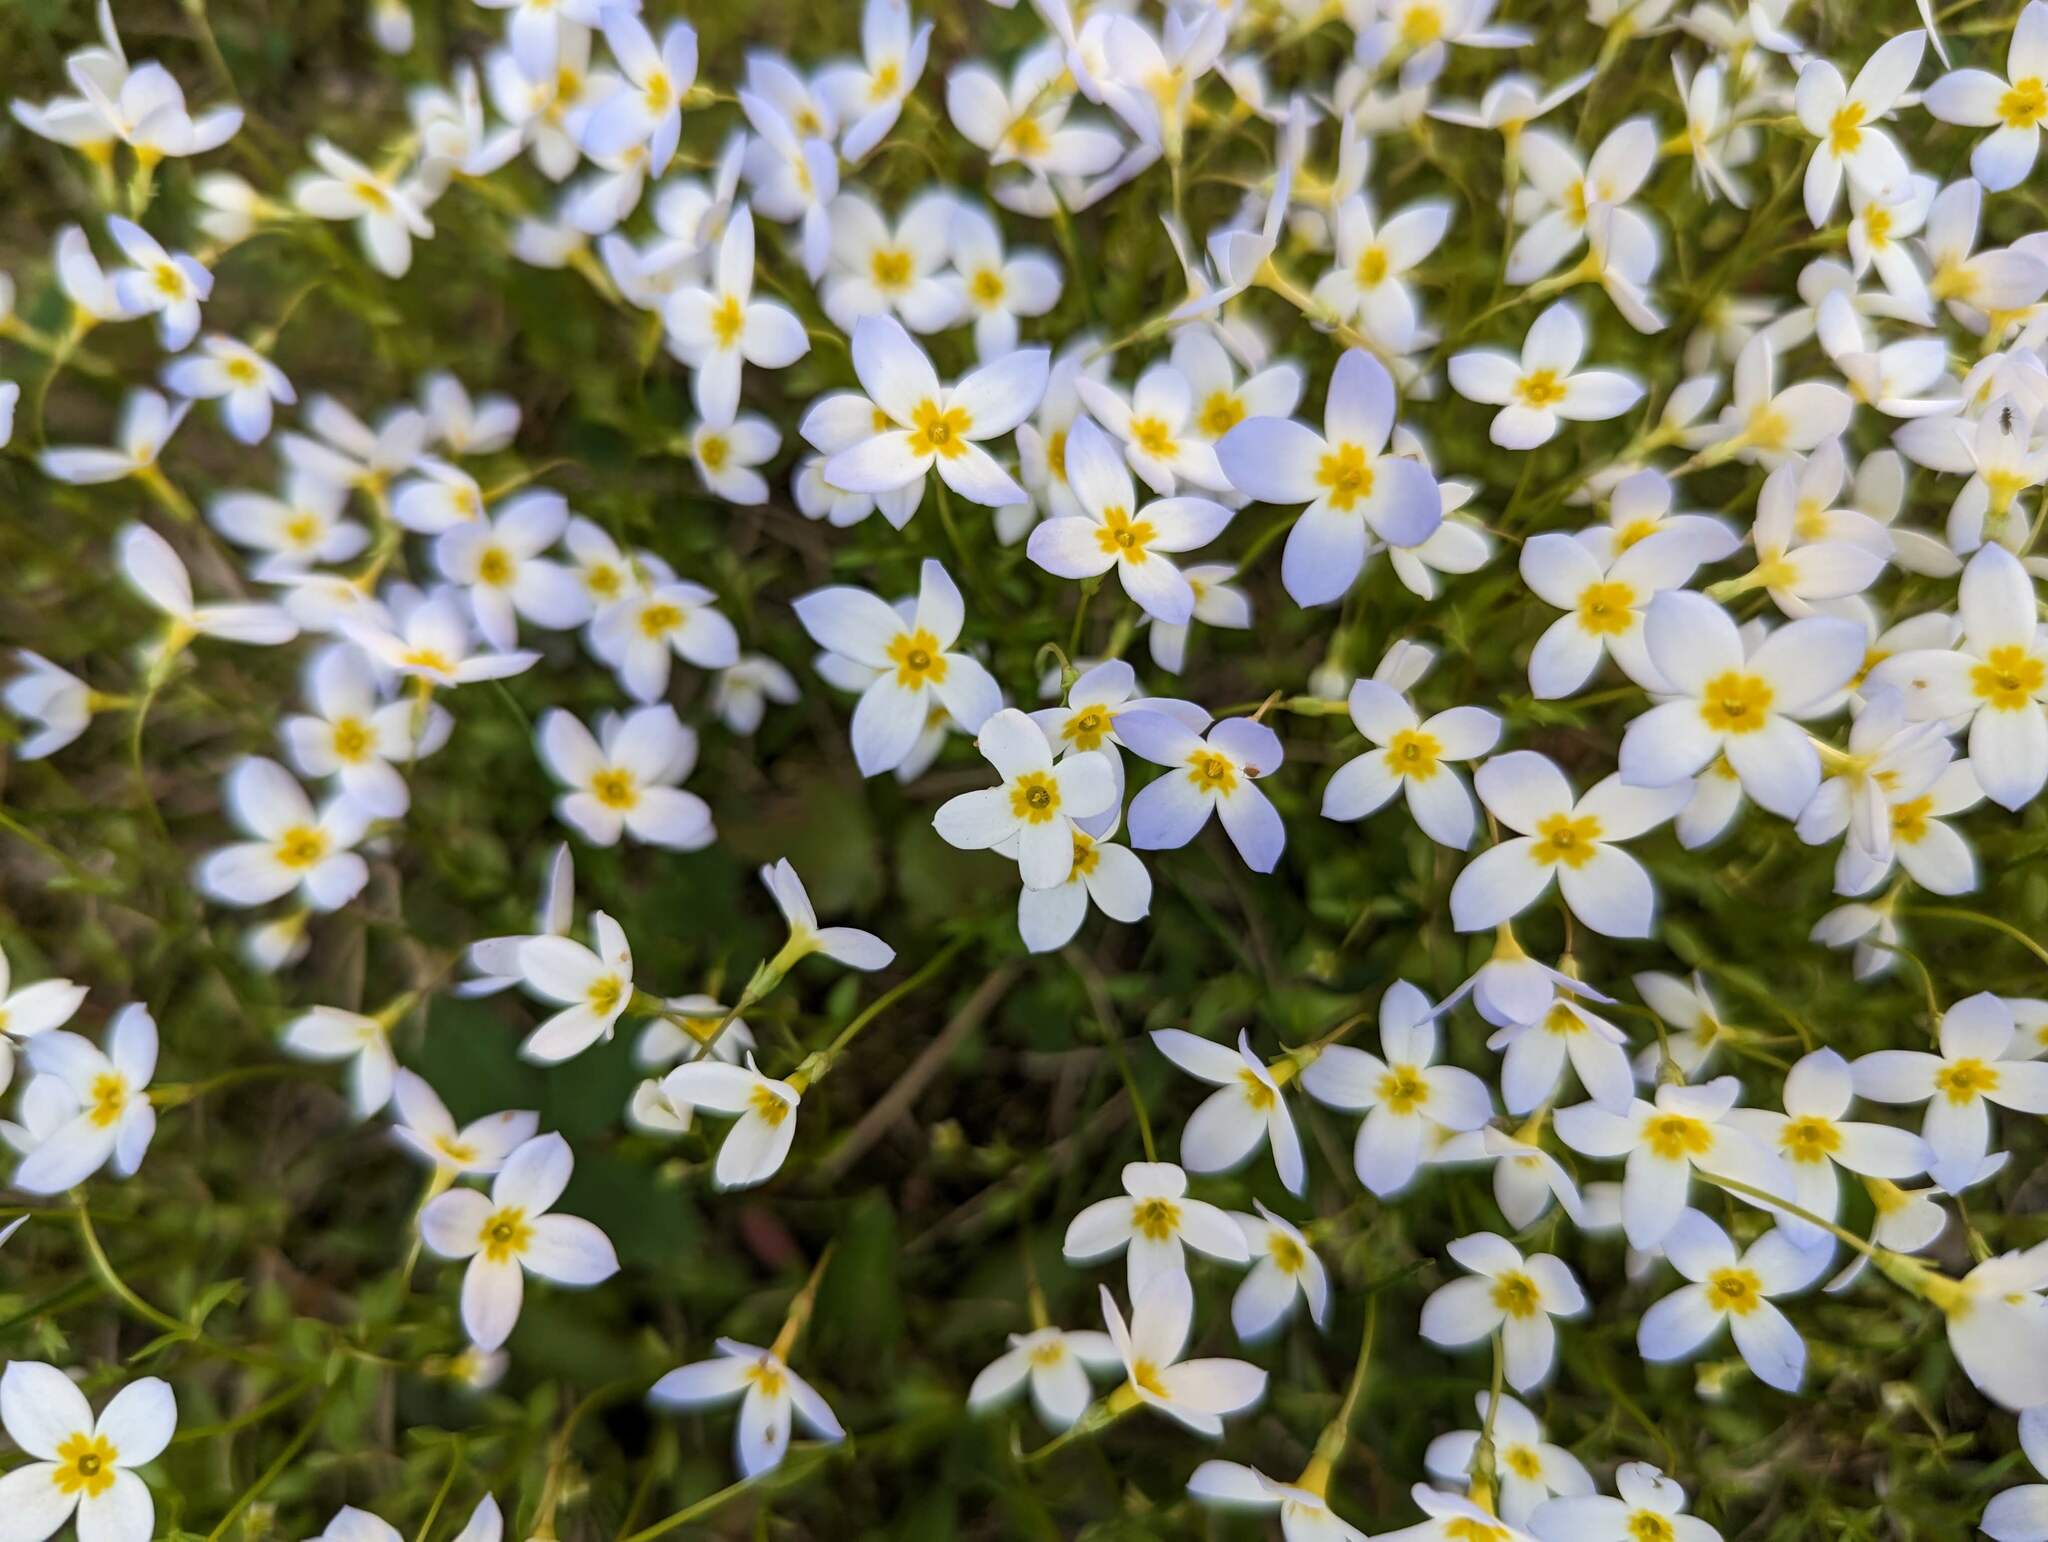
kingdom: Plantae
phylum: Tracheophyta
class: Magnoliopsida
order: Gentianales
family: Rubiaceae
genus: Houstonia
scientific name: Houstonia caerulea
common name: Bluets
